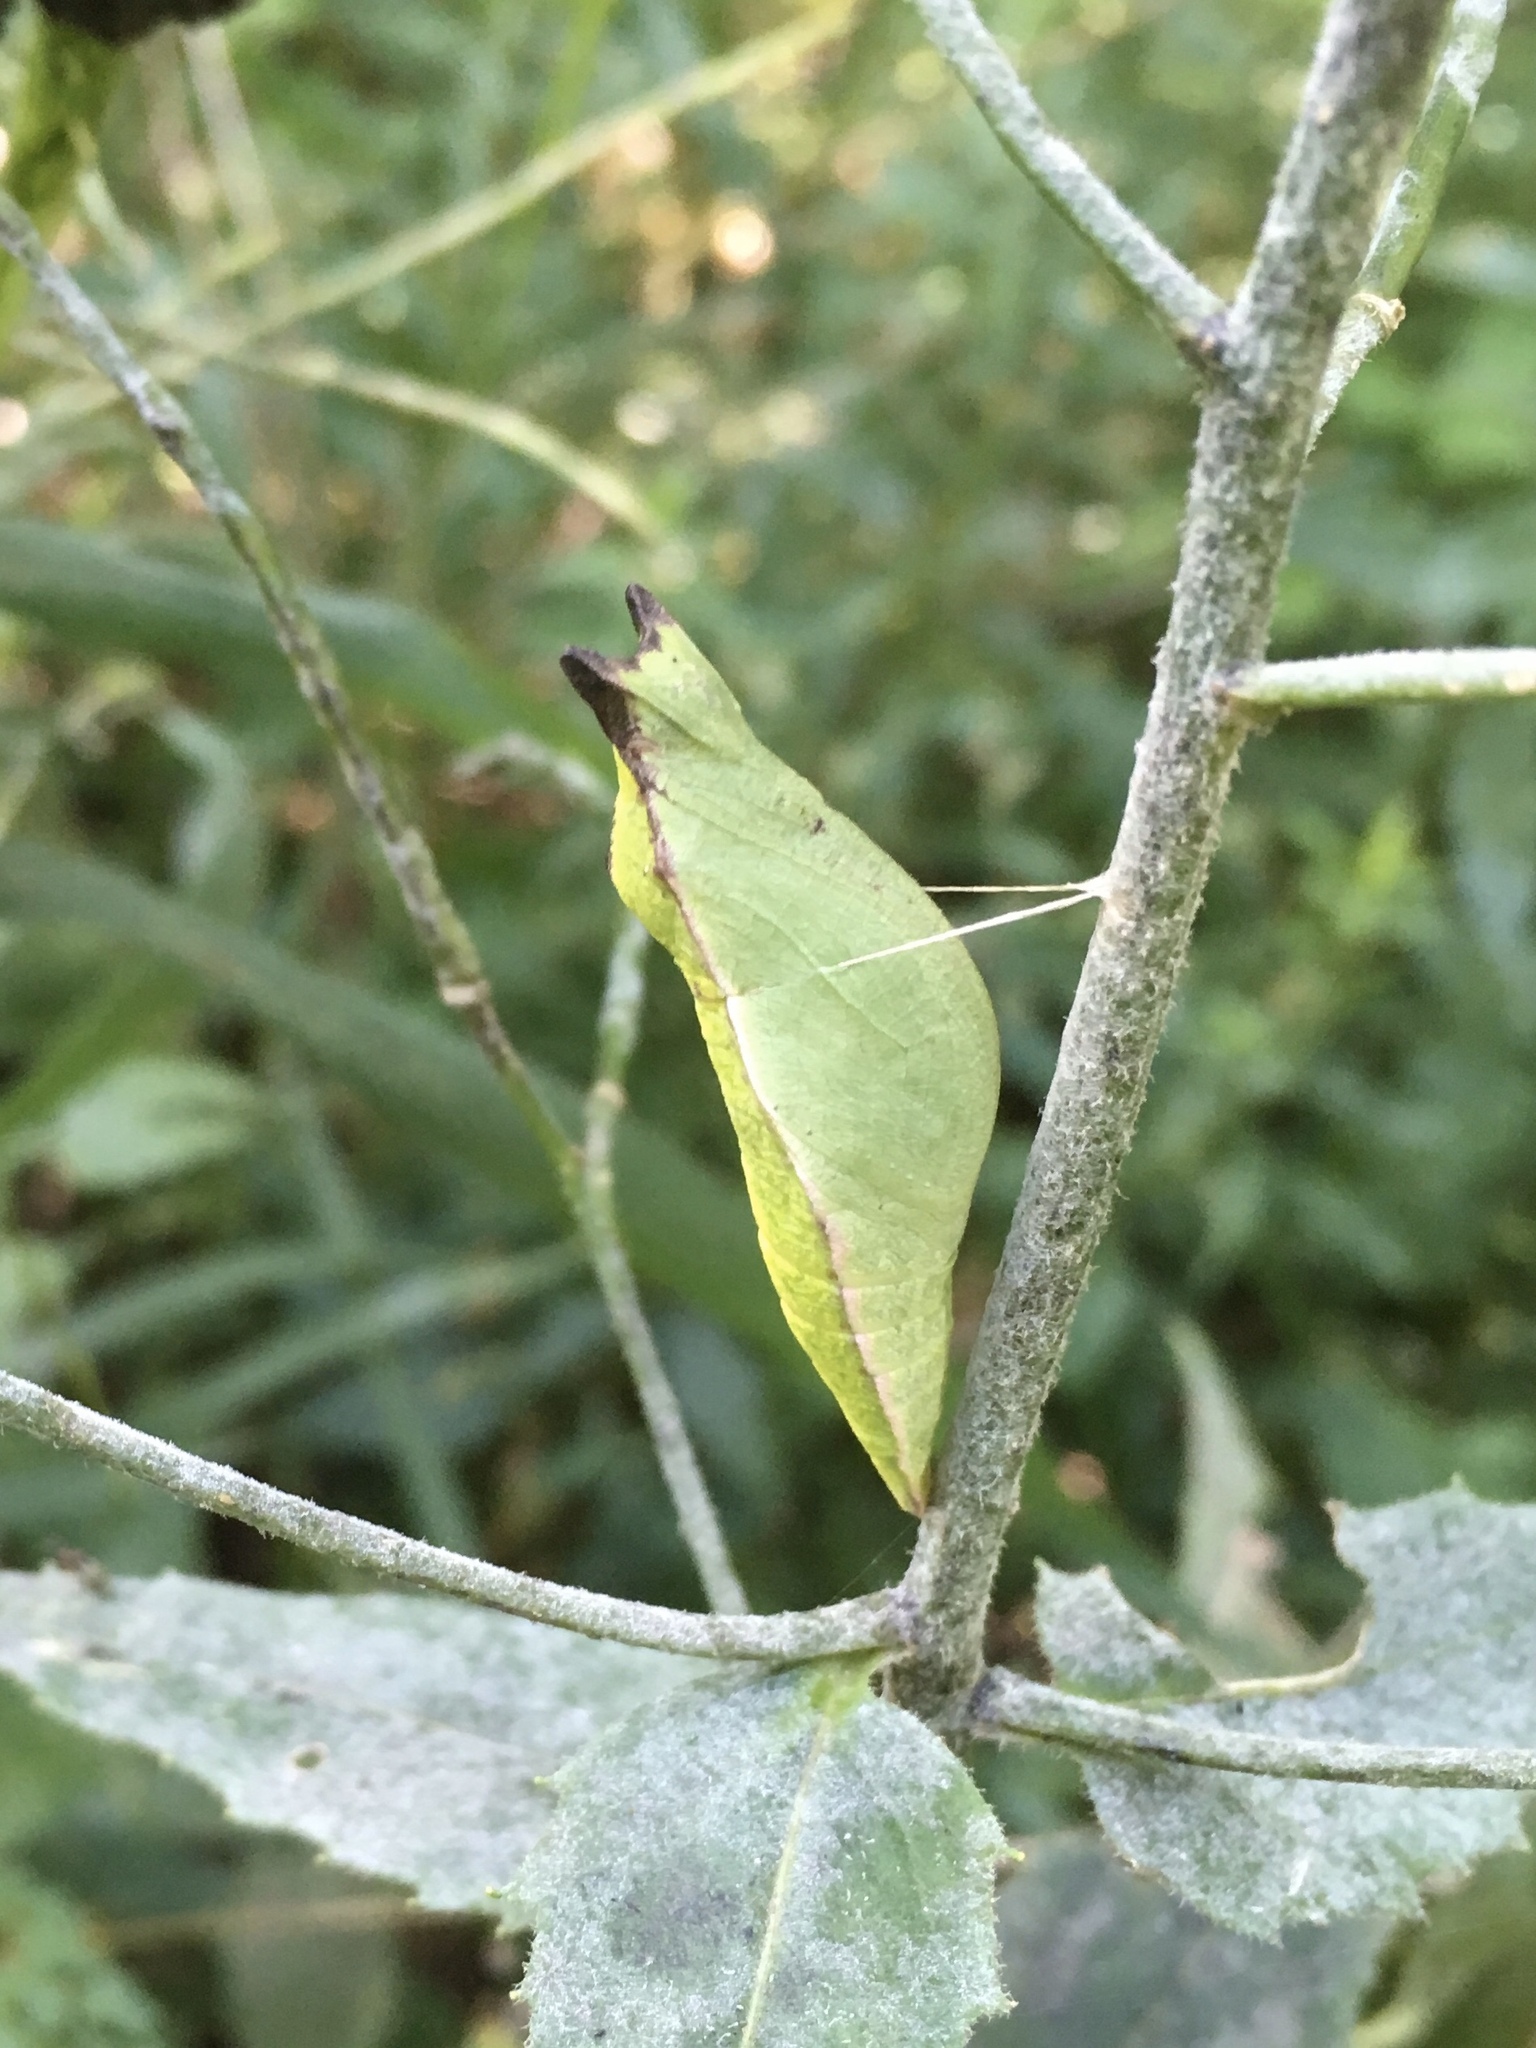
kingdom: Animalia
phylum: Arthropoda
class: Insecta
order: Lepidoptera
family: Papilionidae
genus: Papilio
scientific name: Papilio troilus
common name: Spicebush swallowtail
